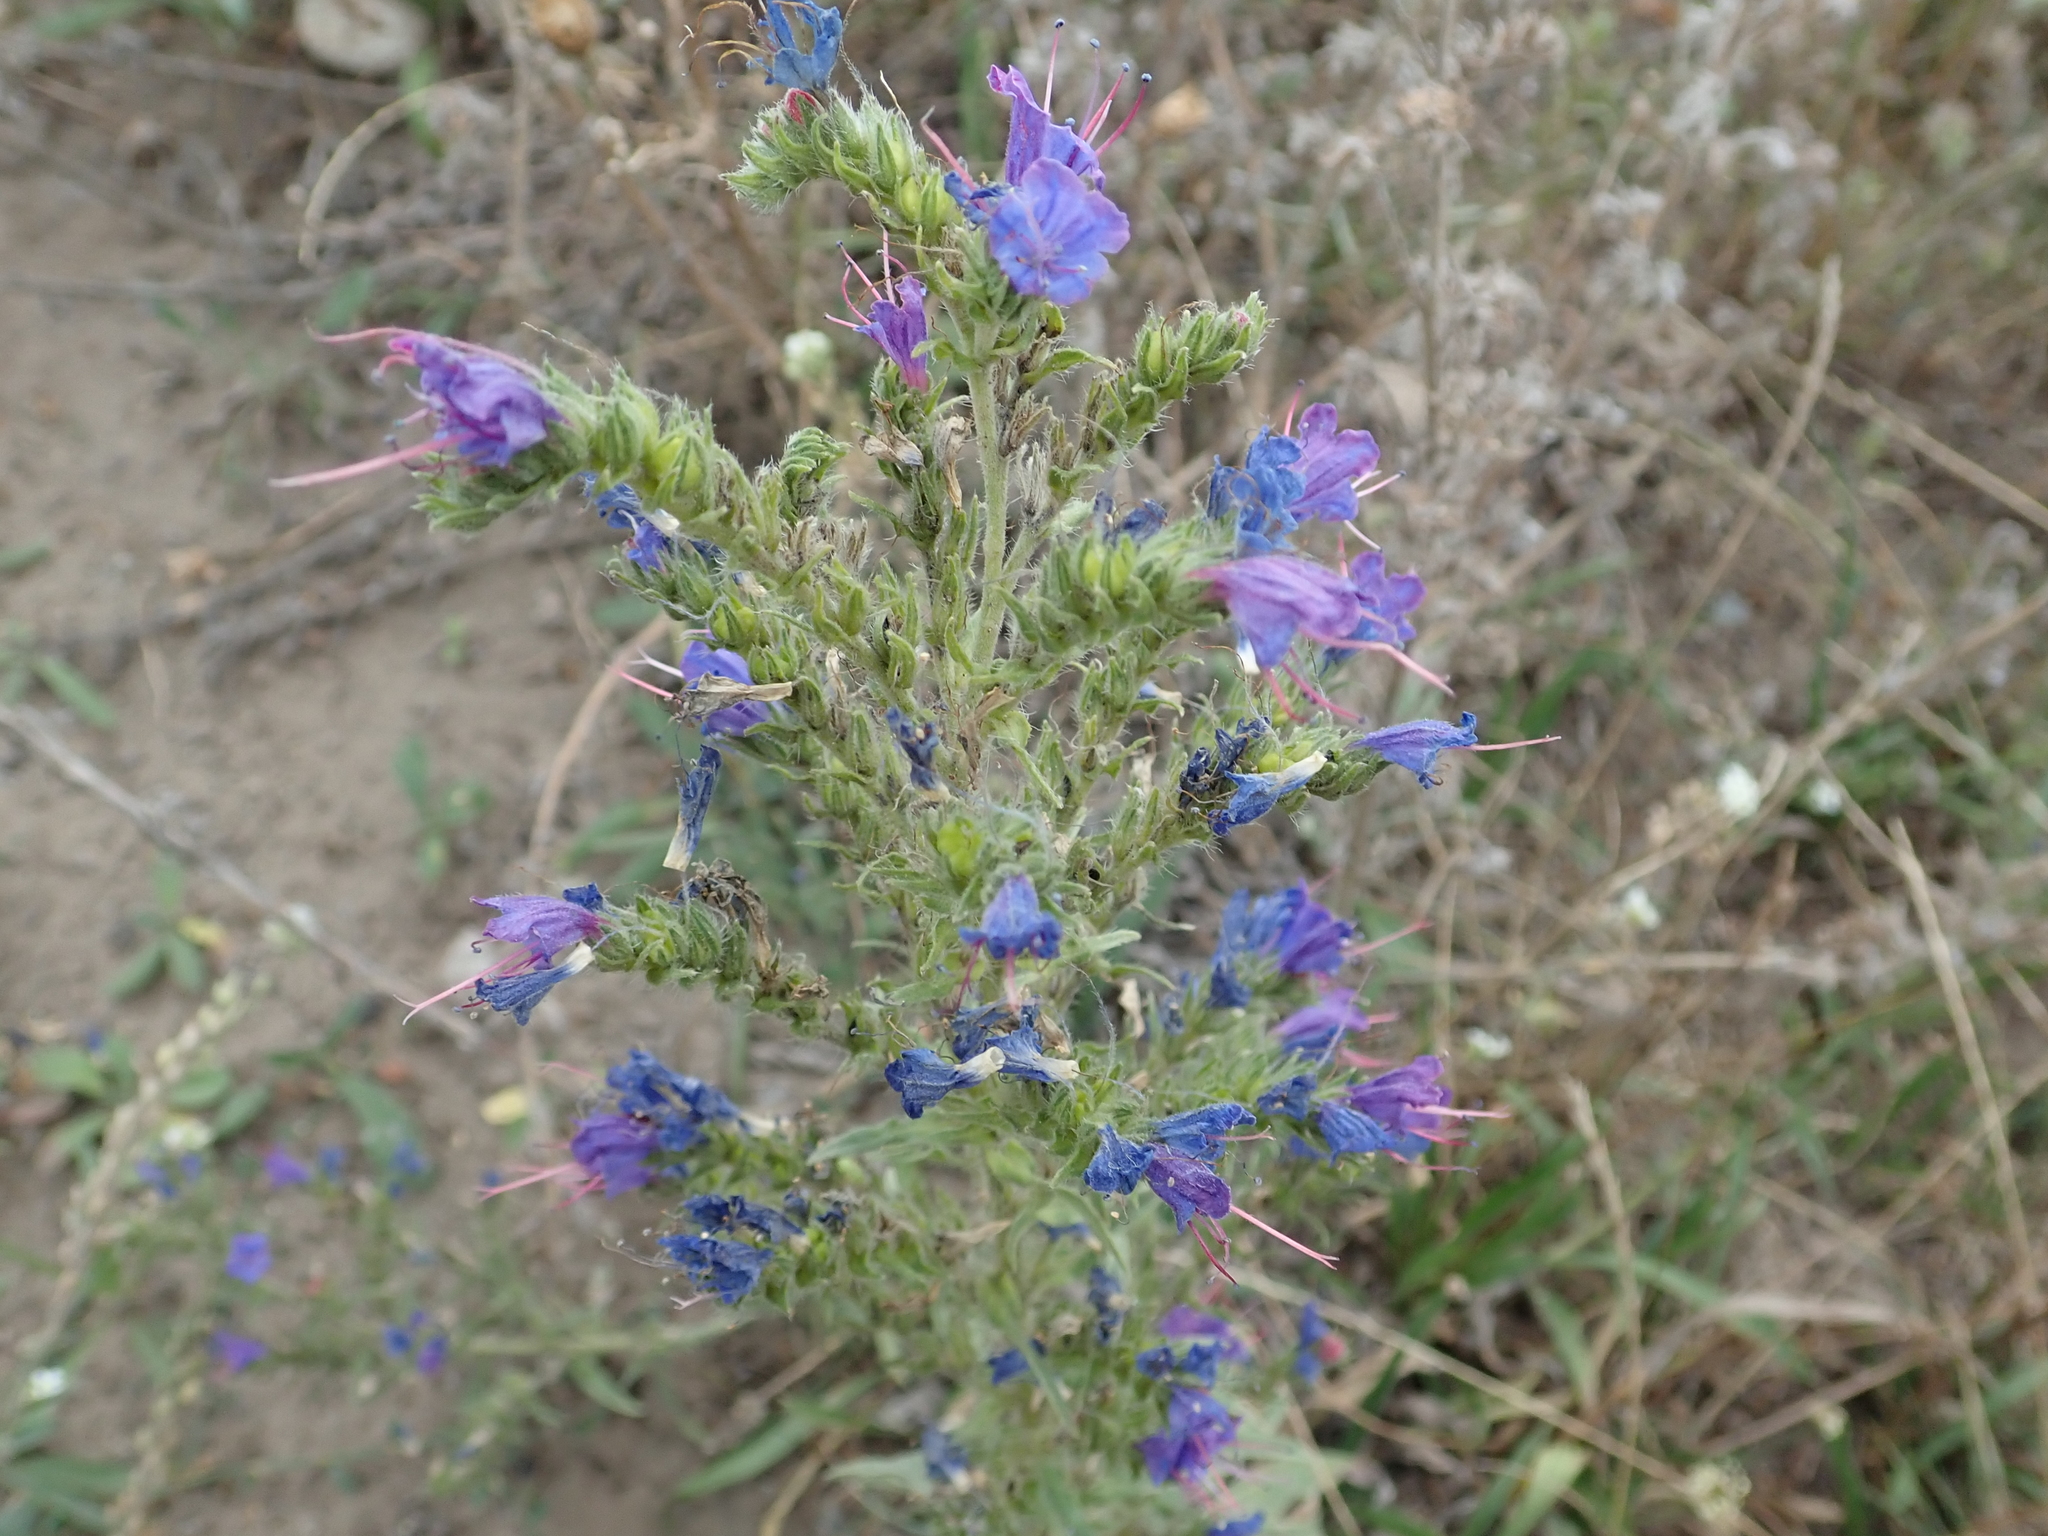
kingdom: Plantae
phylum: Tracheophyta
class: Magnoliopsida
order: Boraginales
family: Boraginaceae
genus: Echium
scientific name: Echium vulgare
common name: Common viper's bugloss
